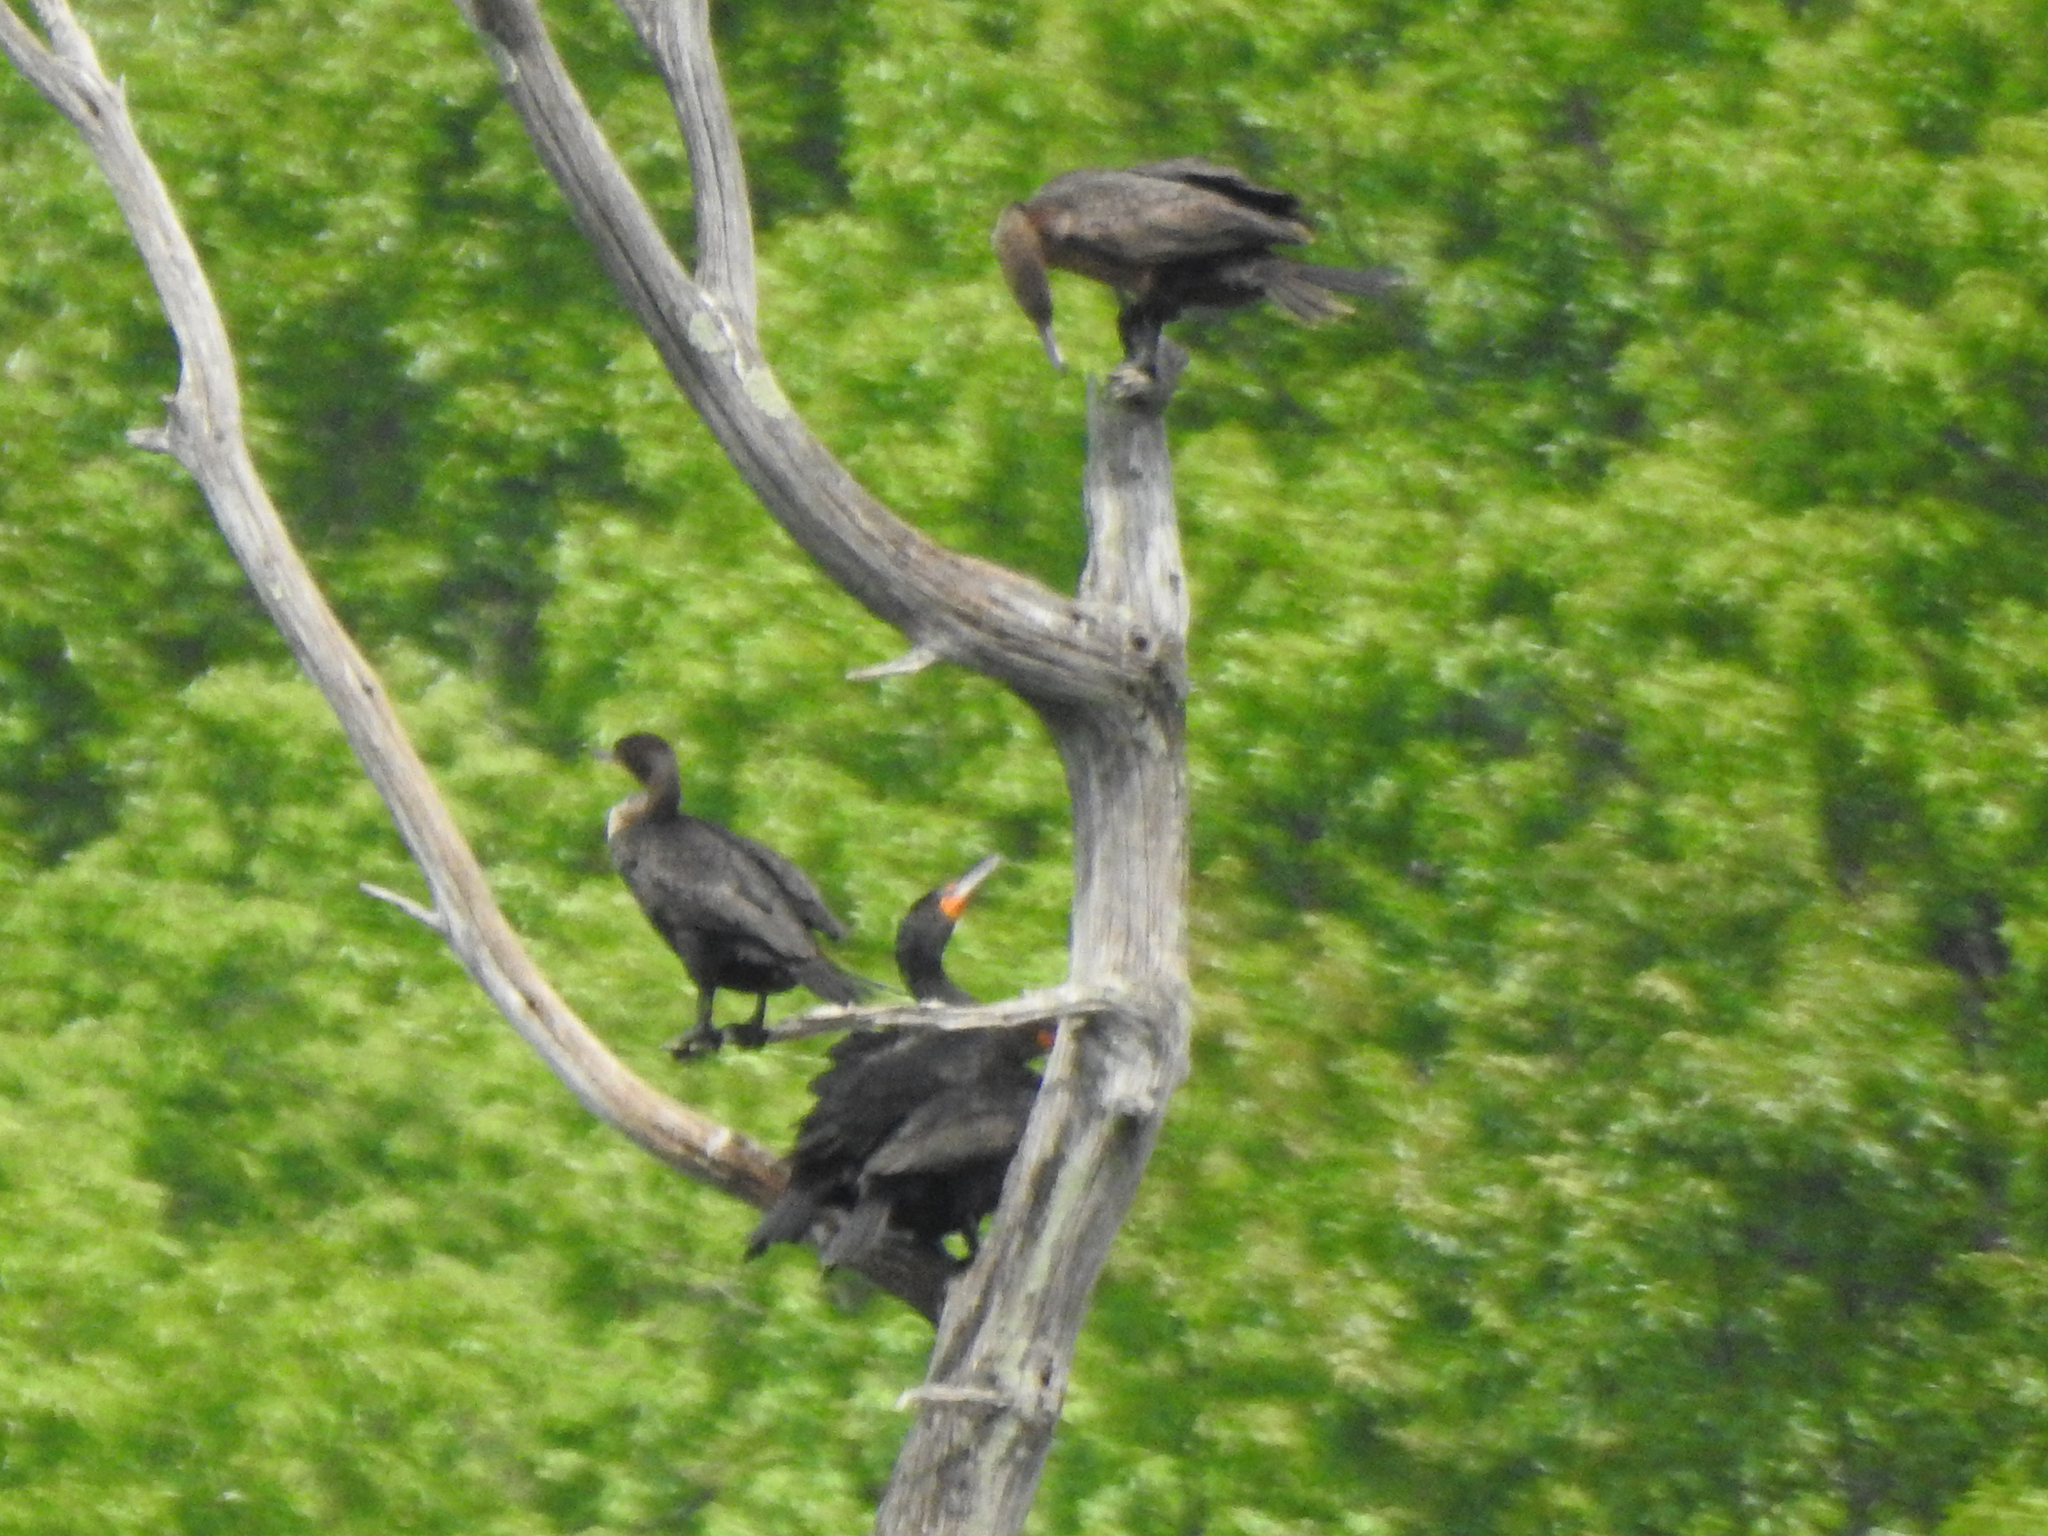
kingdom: Animalia
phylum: Chordata
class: Aves
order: Suliformes
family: Phalacrocoracidae
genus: Phalacrocorax
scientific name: Phalacrocorax auritus
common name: Double-crested cormorant
